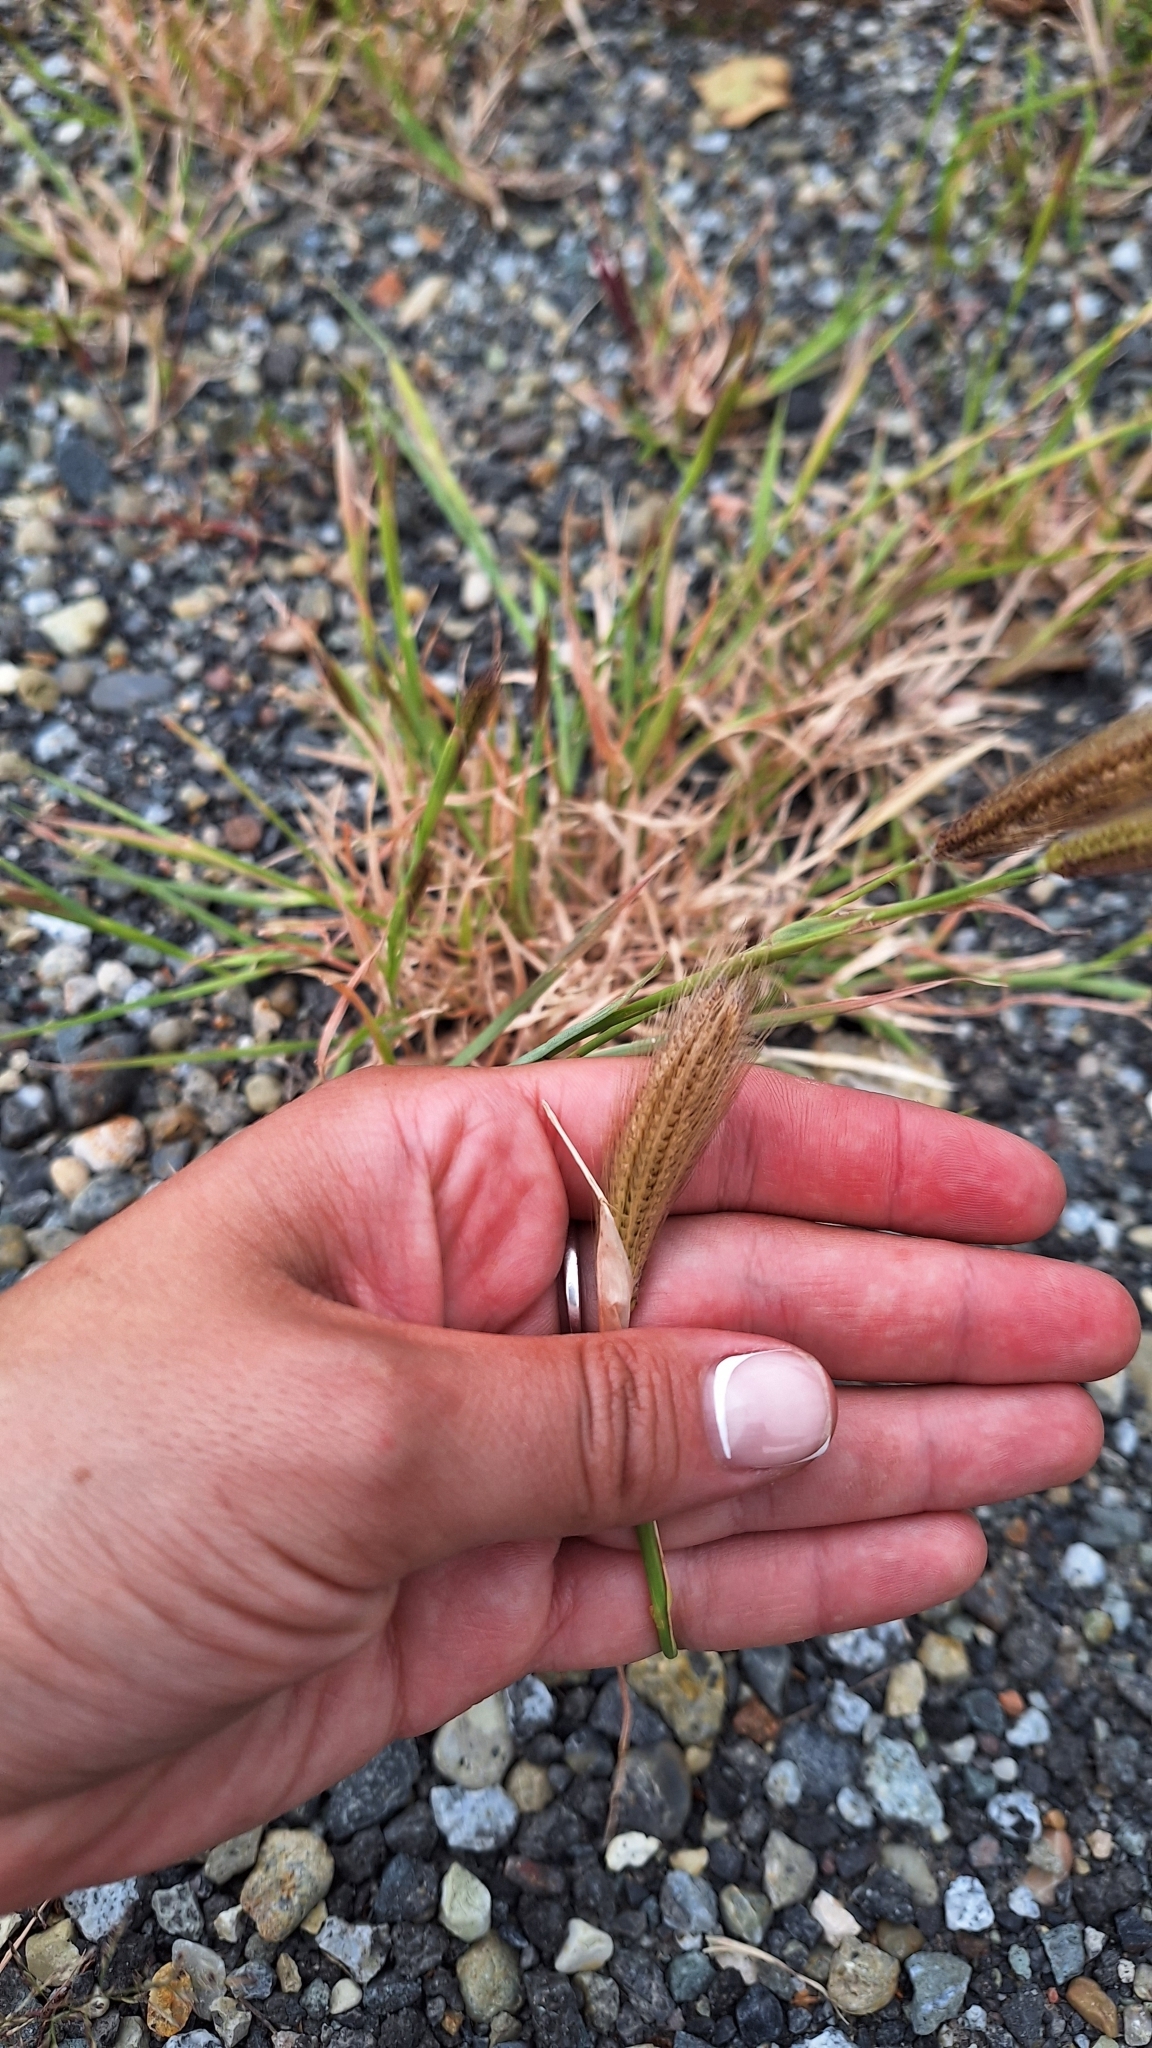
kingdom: Plantae
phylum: Tracheophyta
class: Liliopsida
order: Poales
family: Poaceae
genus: Chloris
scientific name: Chloris virgata
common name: Feathery rhodes-grass
